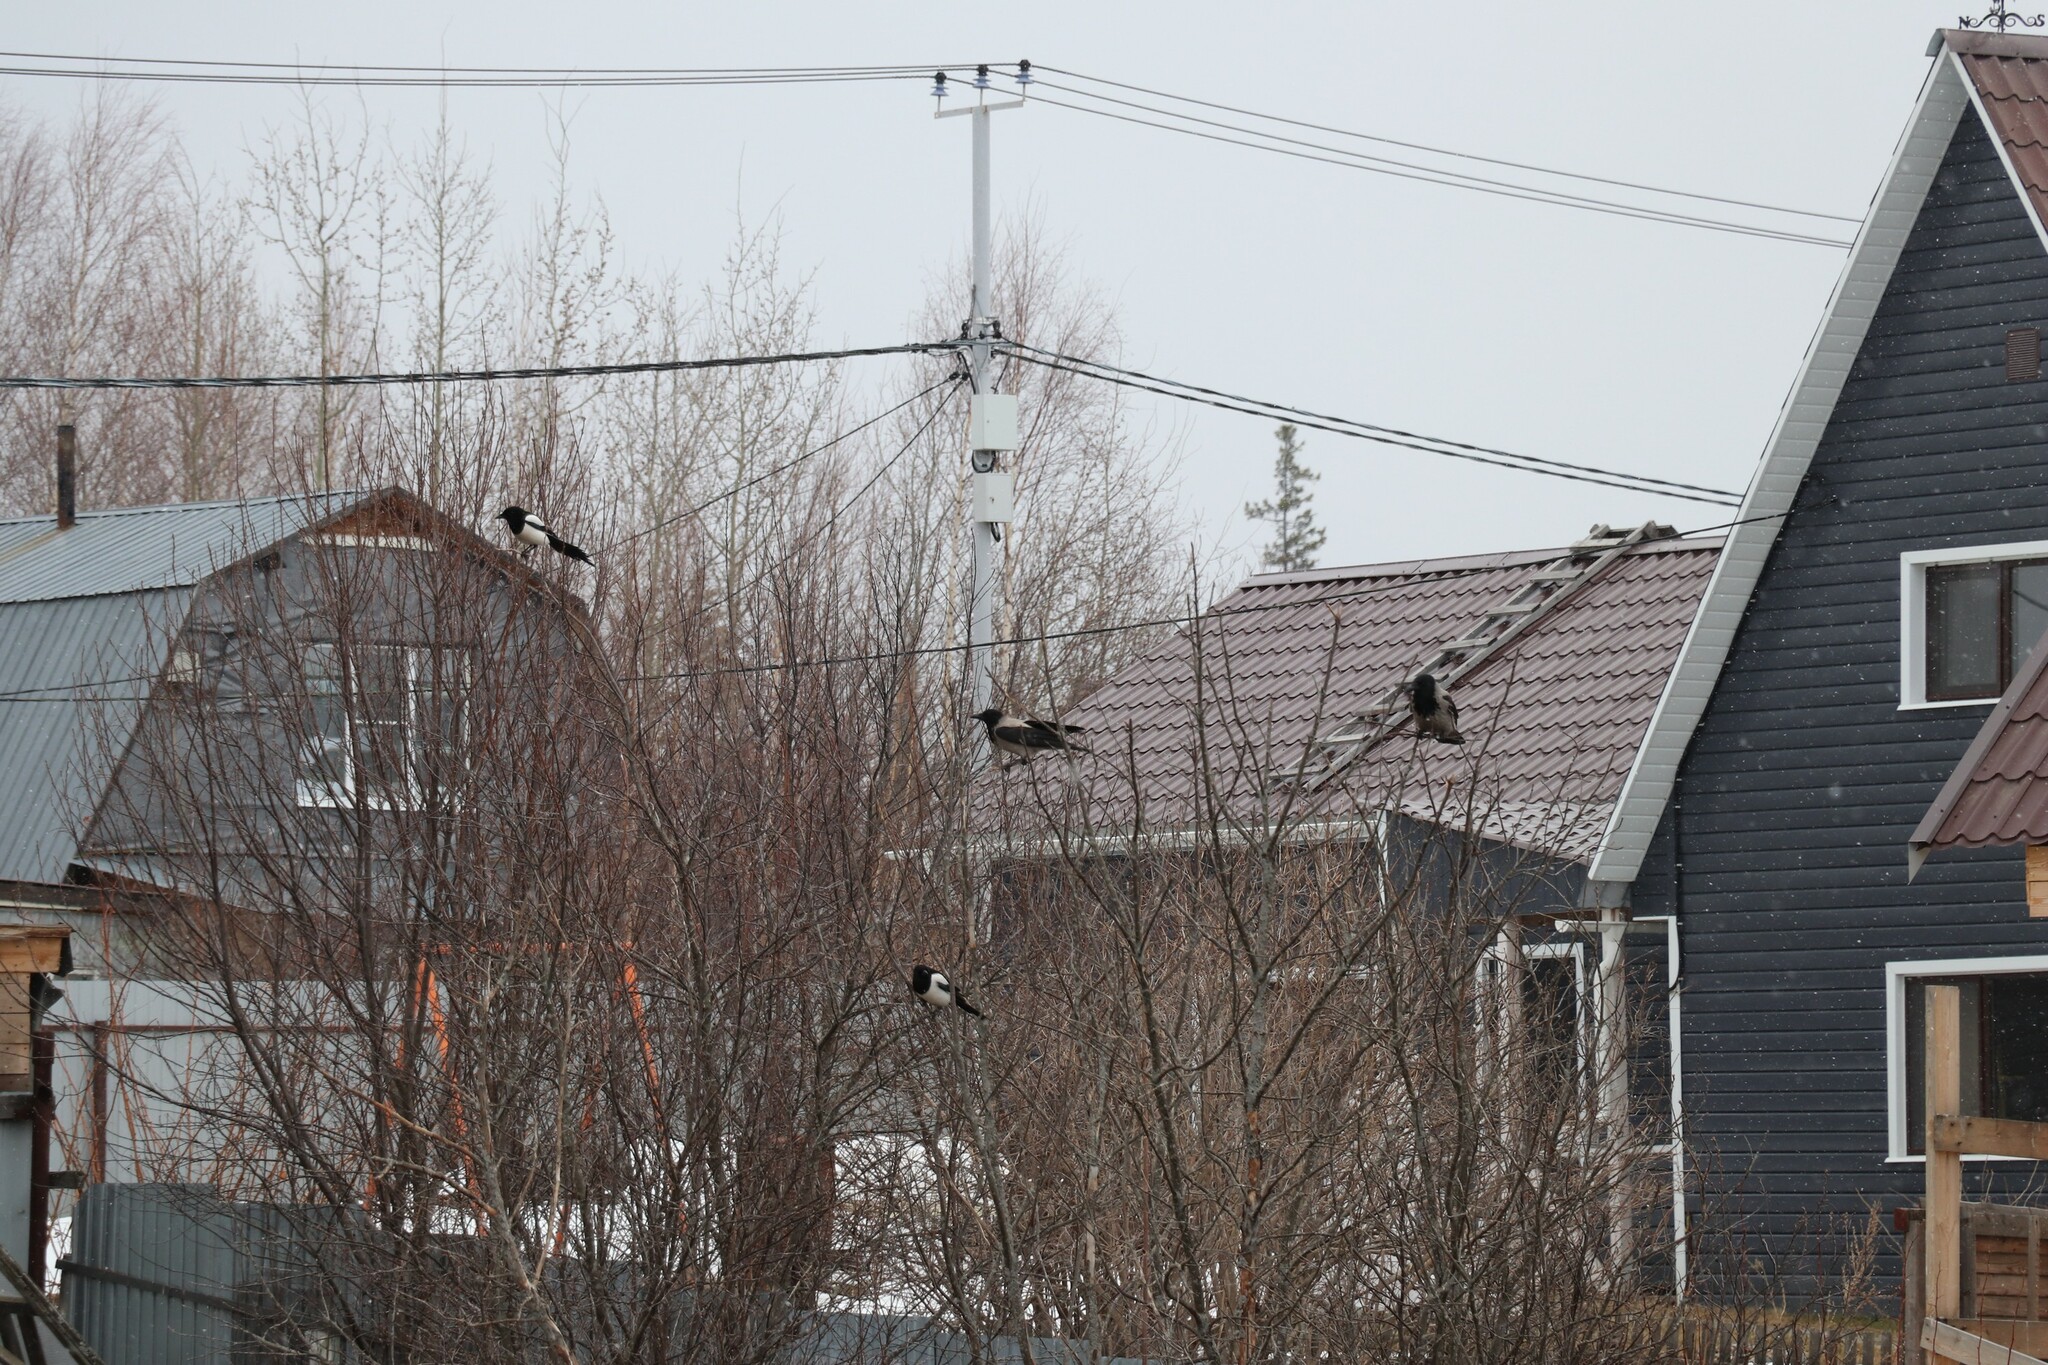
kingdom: Animalia
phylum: Chordata
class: Aves
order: Passeriformes
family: Corvidae
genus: Pica
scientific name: Pica pica
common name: Eurasian magpie
